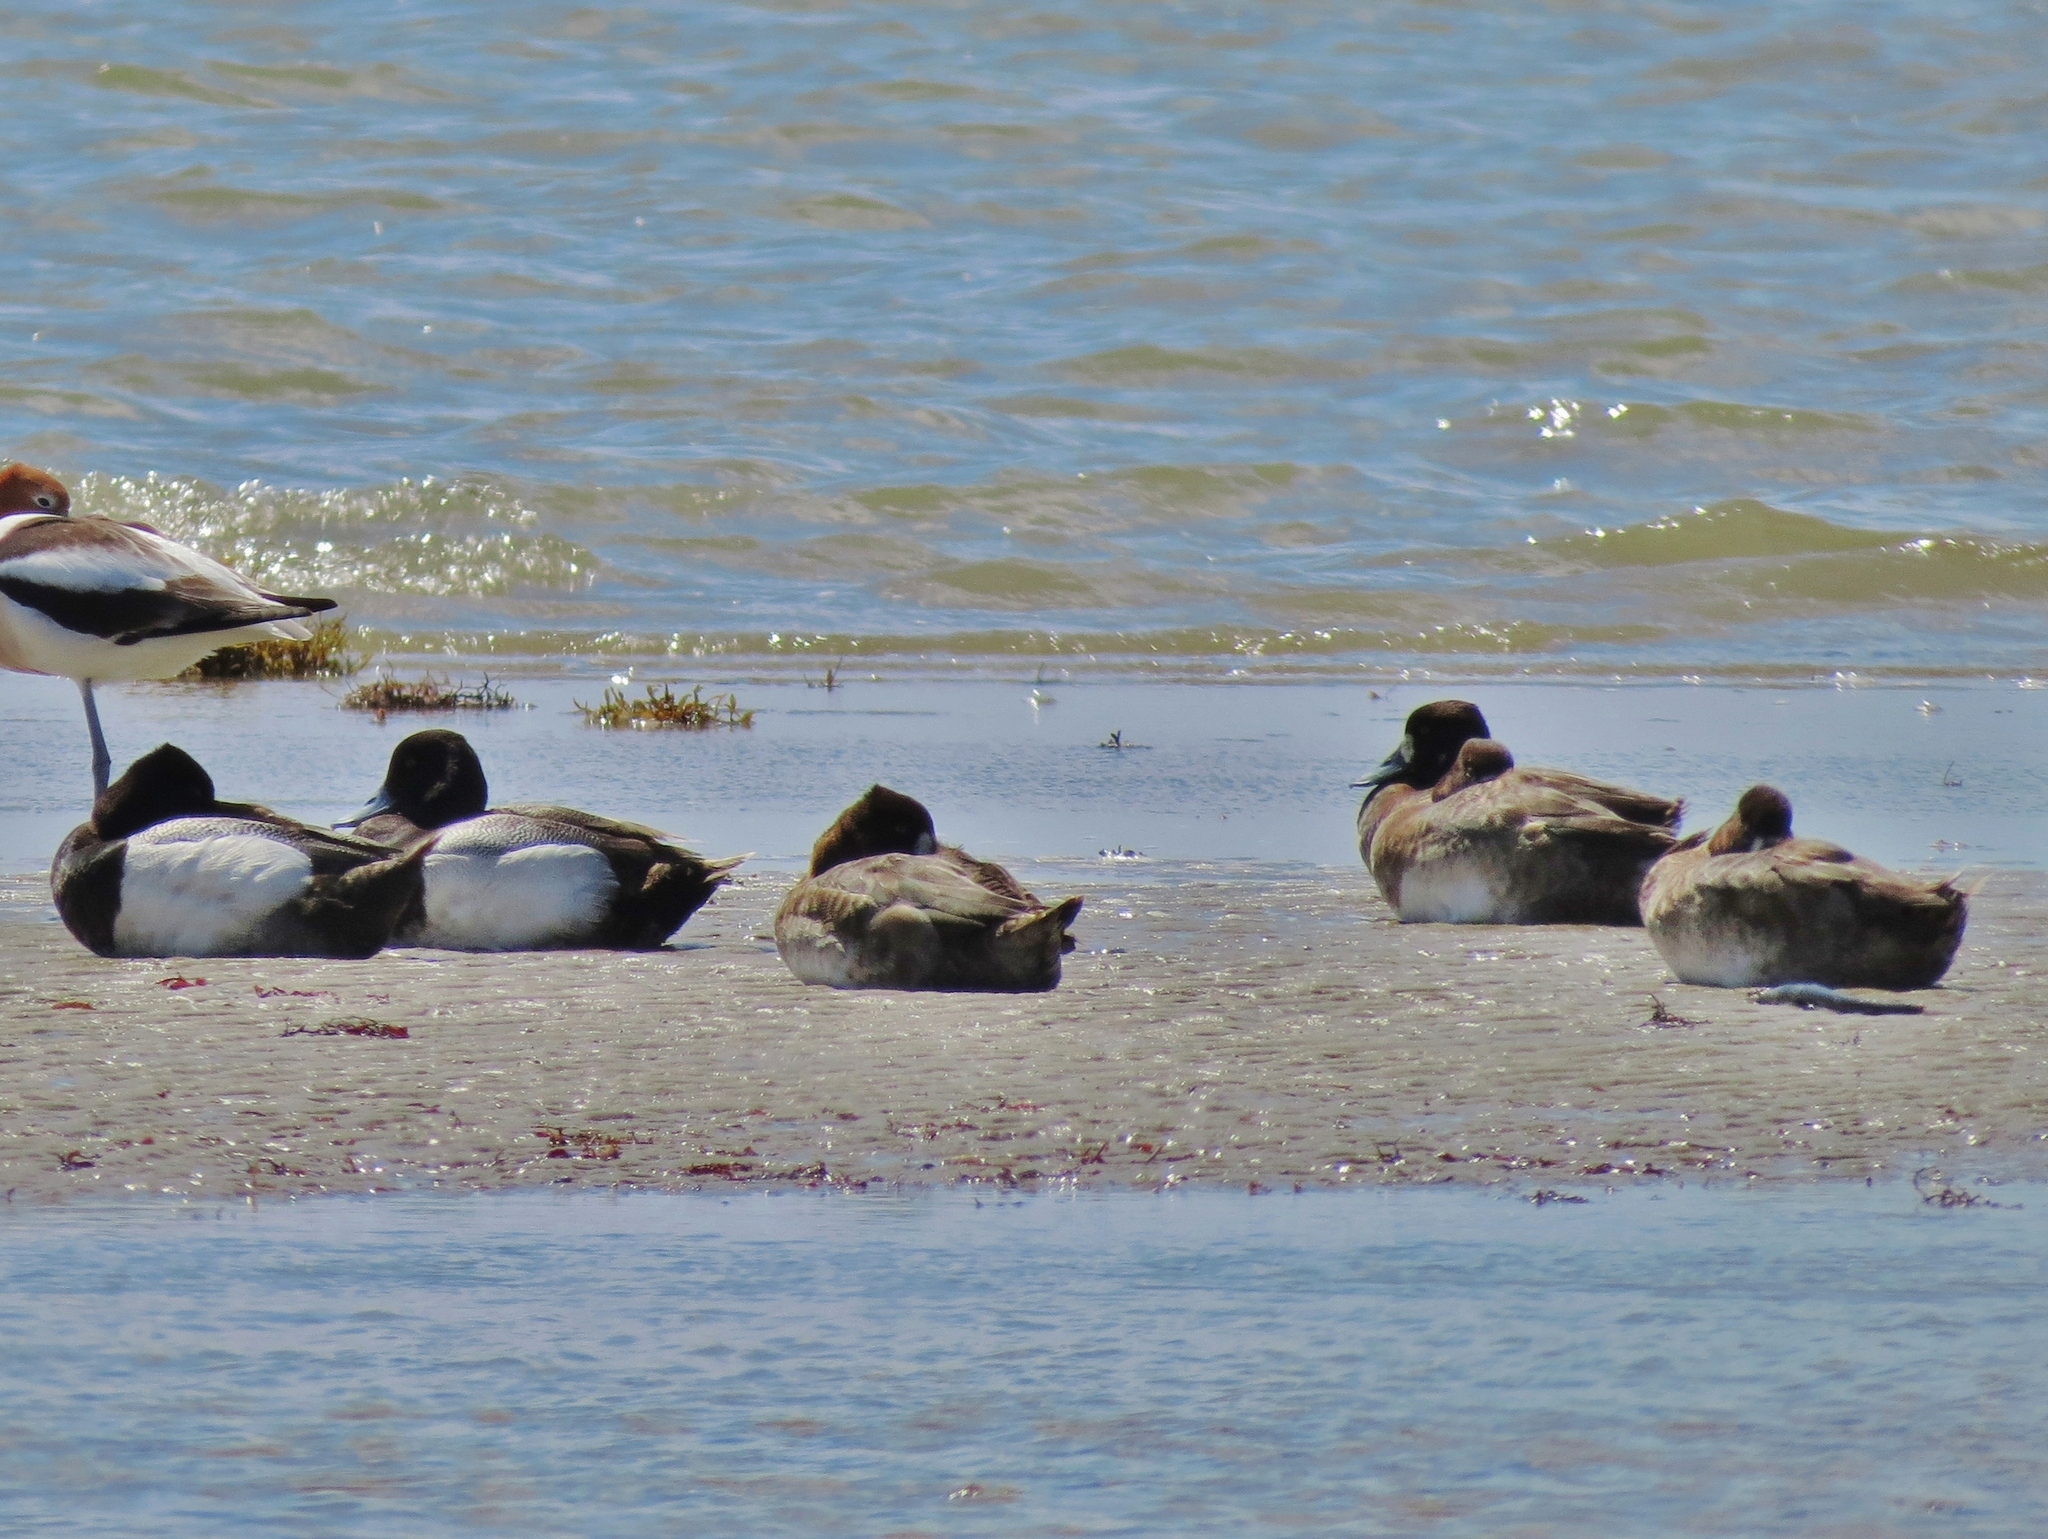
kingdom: Animalia
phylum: Chordata
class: Aves
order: Anseriformes
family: Anatidae
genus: Aythya
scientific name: Aythya affinis
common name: Lesser scaup
